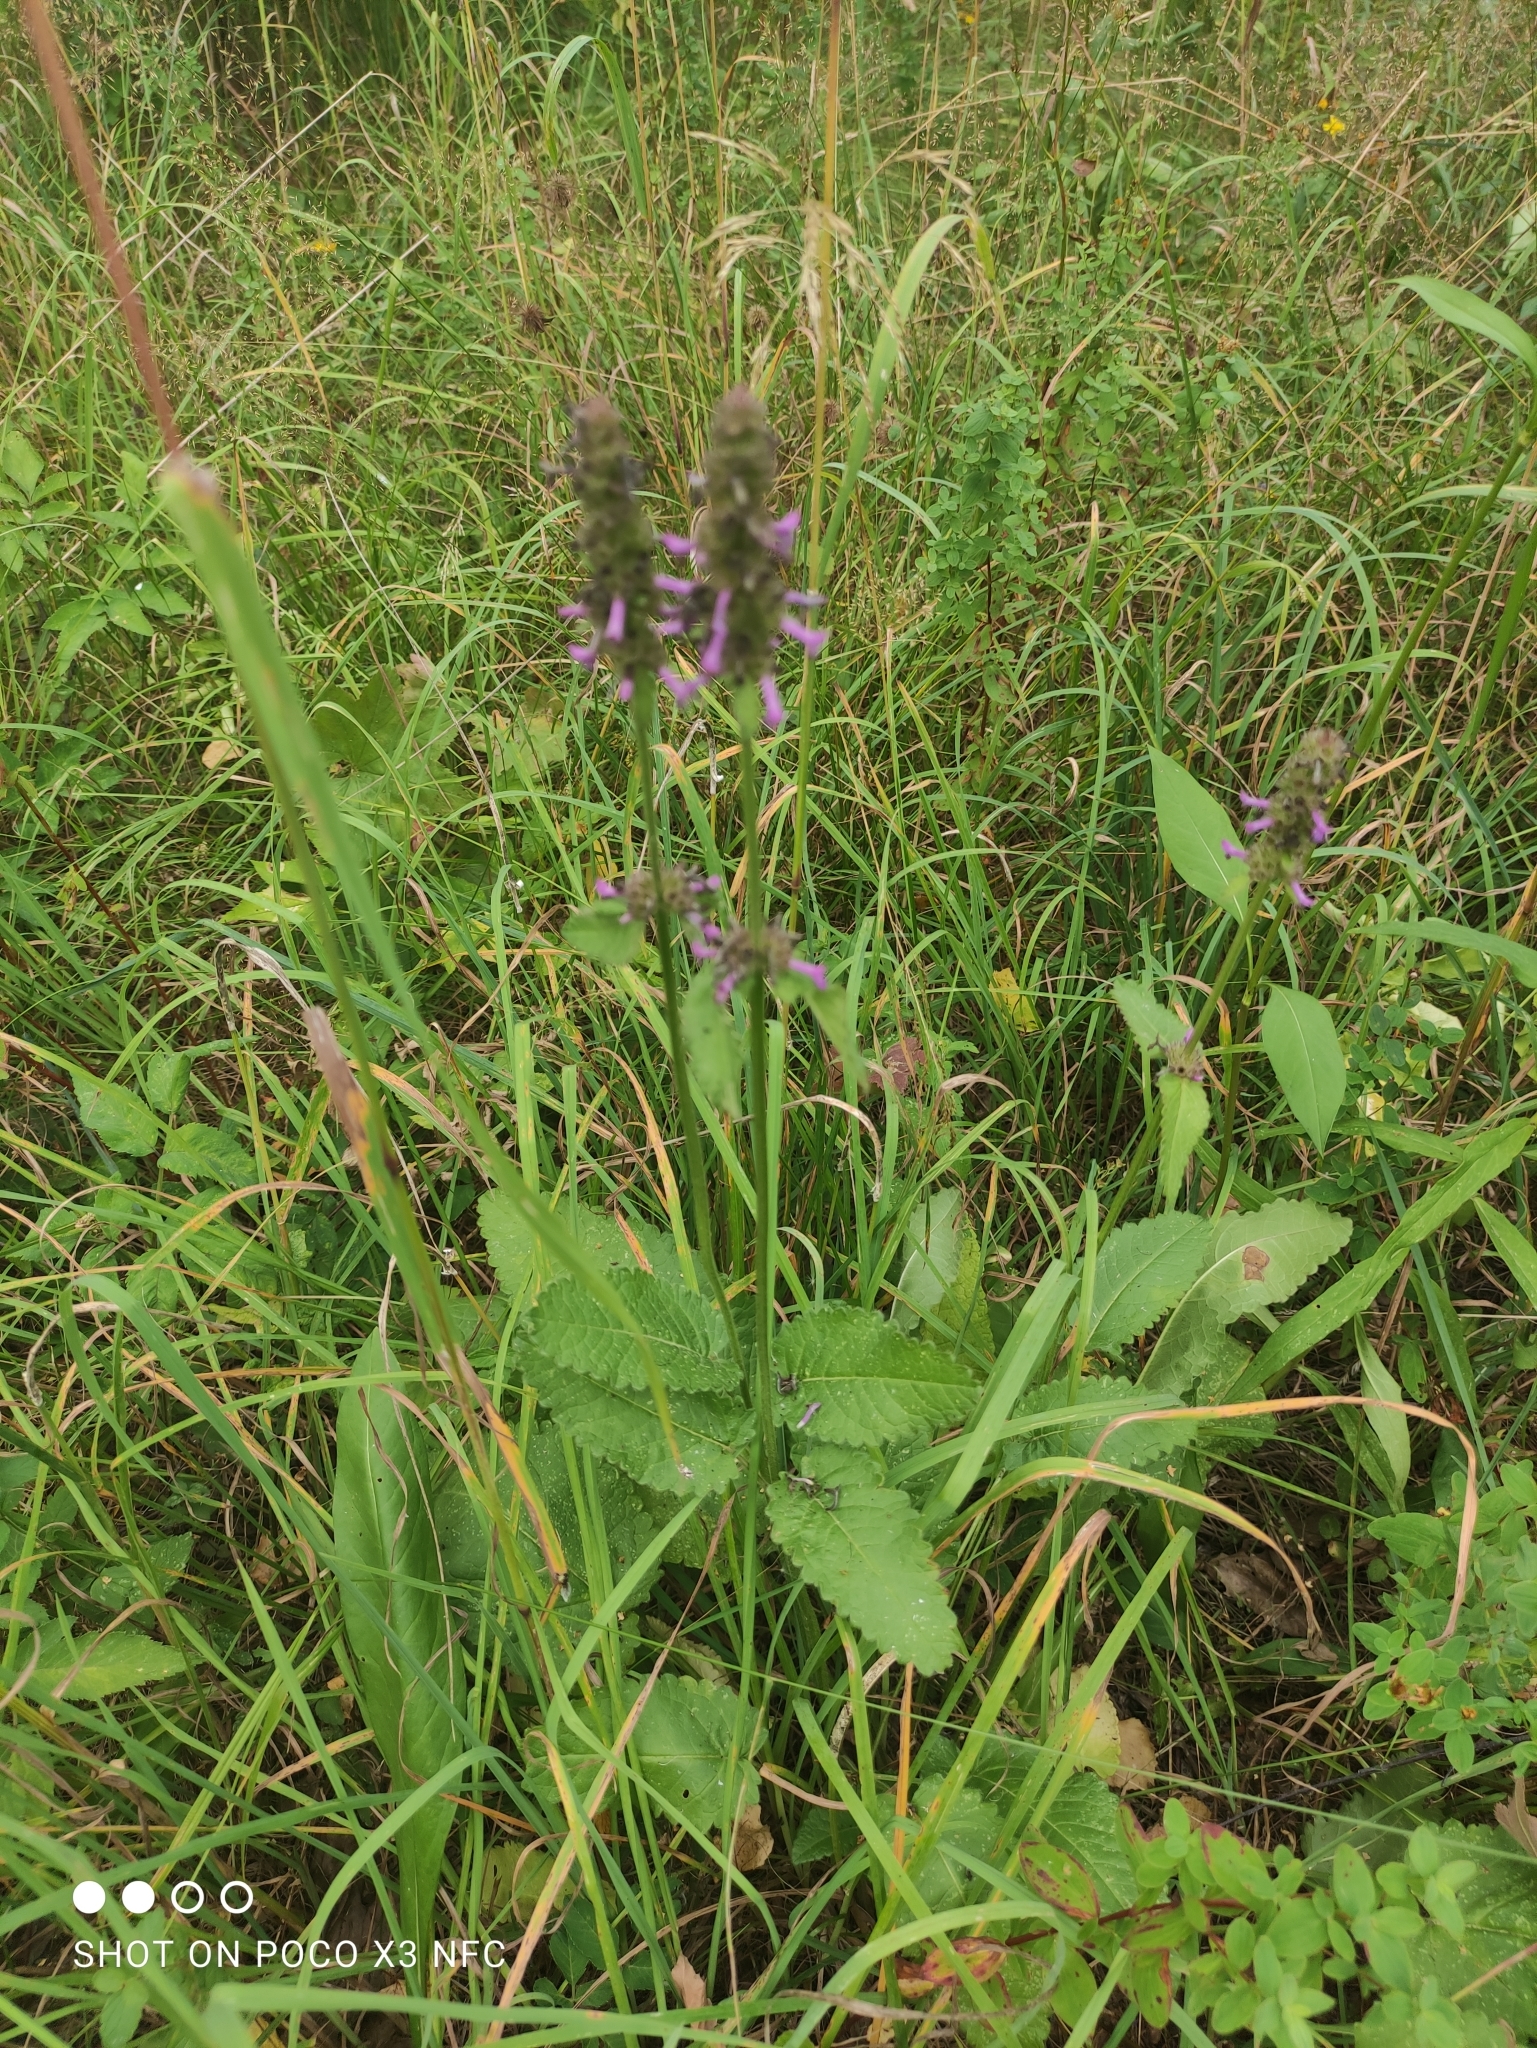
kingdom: Plantae
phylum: Tracheophyta
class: Magnoliopsida
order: Lamiales
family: Lamiaceae
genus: Betonica
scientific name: Betonica officinalis
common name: Bishop's-wort
